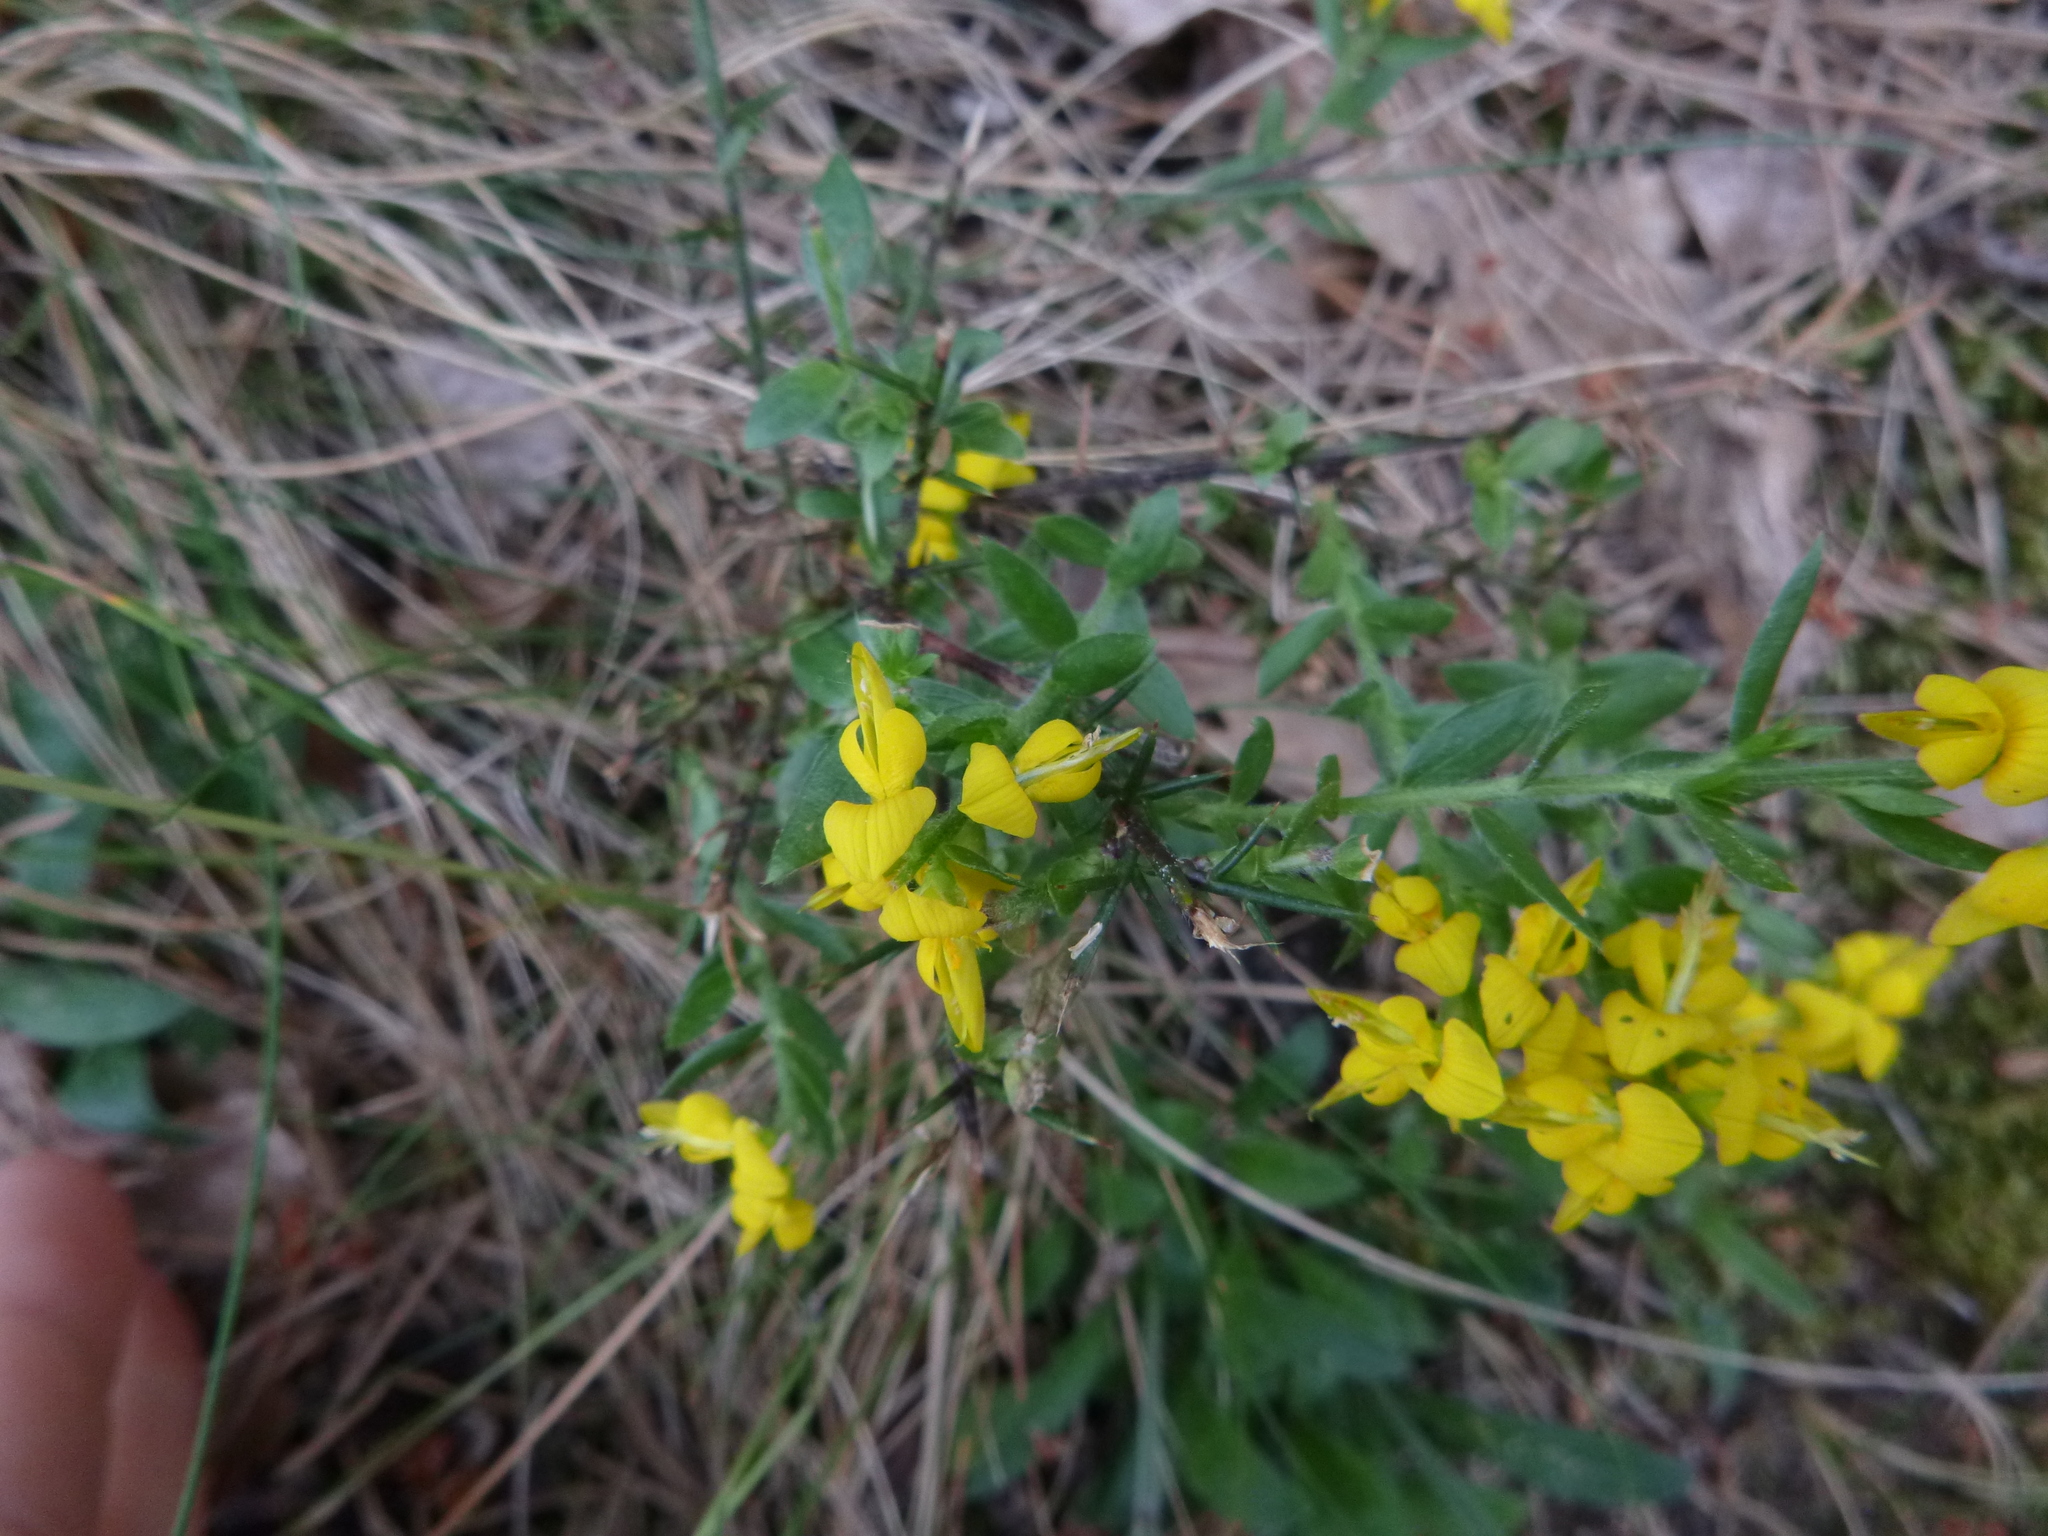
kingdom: Plantae
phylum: Tracheophyta
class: Magnoliopsida
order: Fabales
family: Fabaceae
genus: Genista
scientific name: Genista germanica
